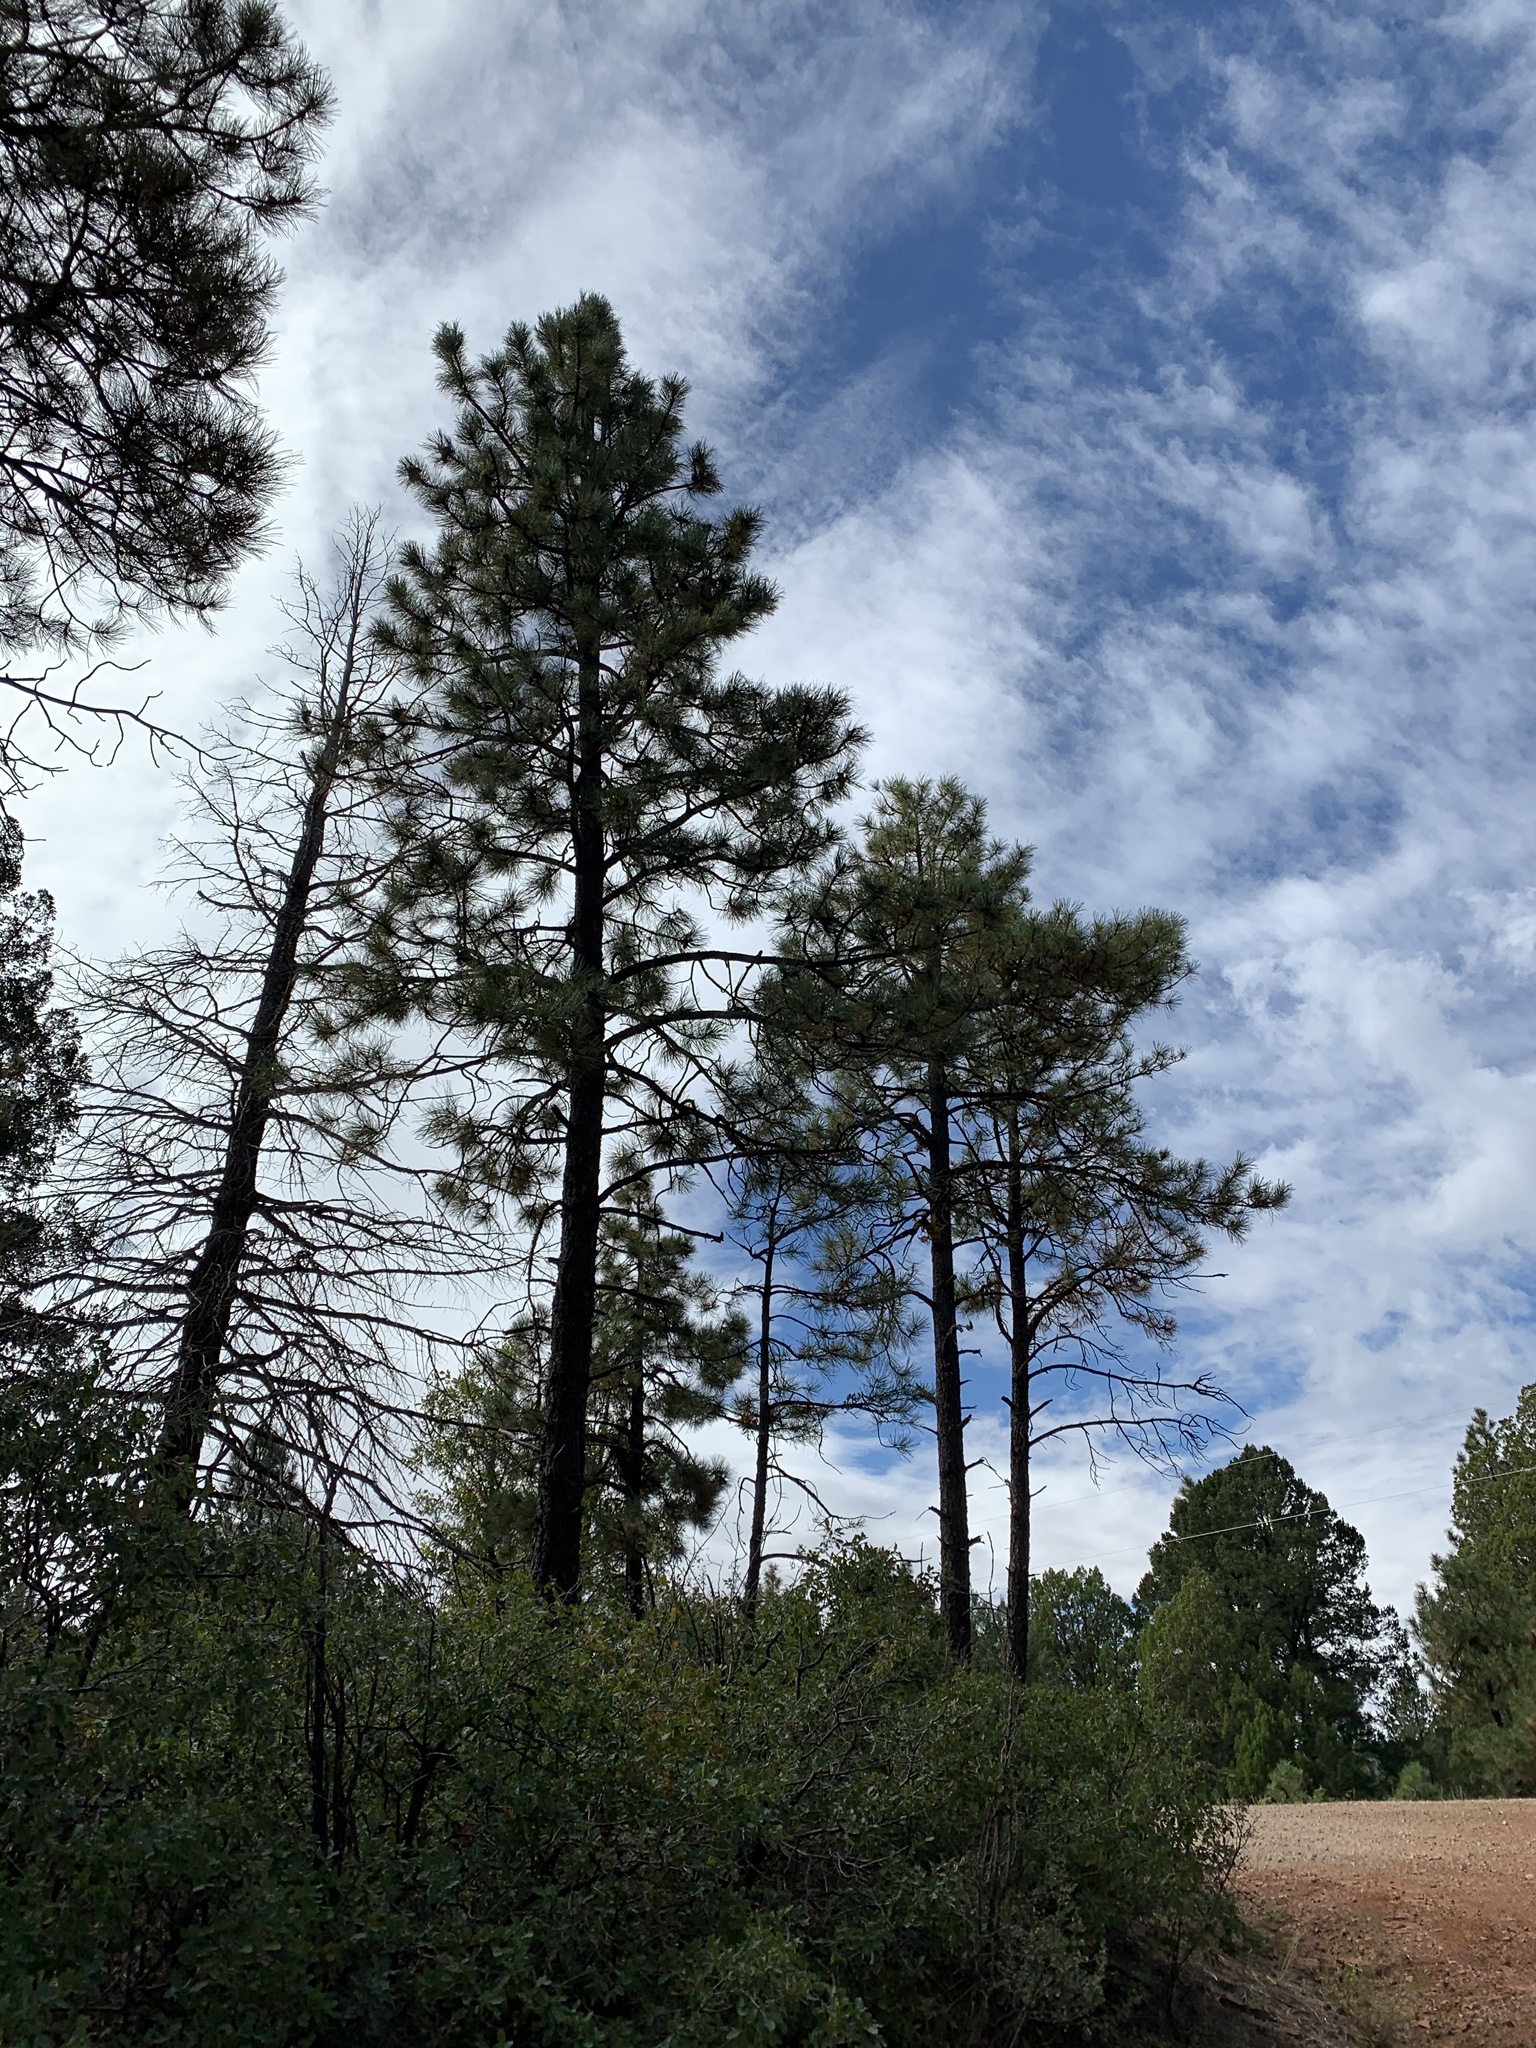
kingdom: Plantae
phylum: Tracheophyta
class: Pinopsida
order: Pinales
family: Pinaceae
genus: Pinus
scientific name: Pinus ponderosa
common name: Western yellow-pine
